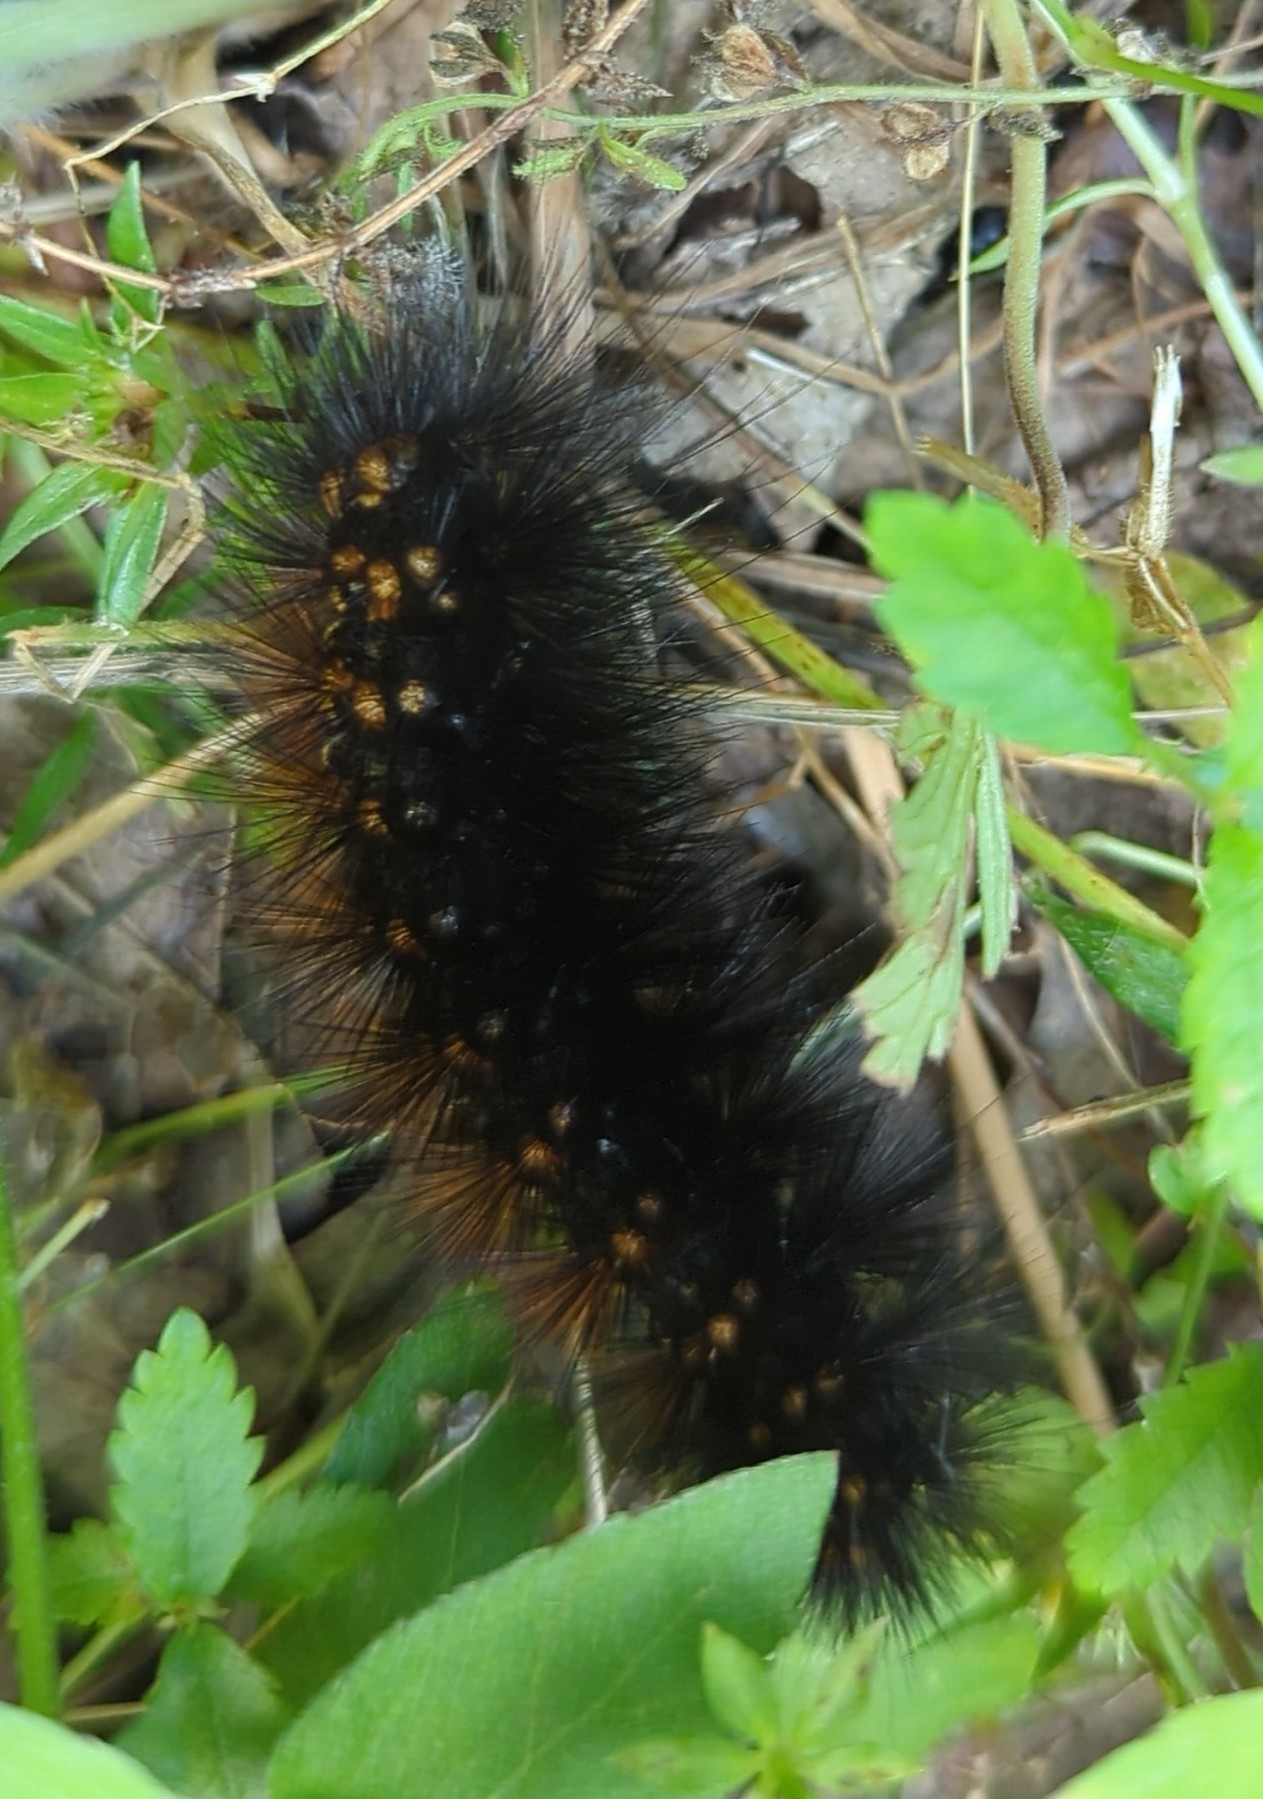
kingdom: Animalia
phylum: Arthropoda
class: Insecta
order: Lepidoptera
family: Erebidae
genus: Estigmene
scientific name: Estigmene acrea
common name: Salt marsh moth
